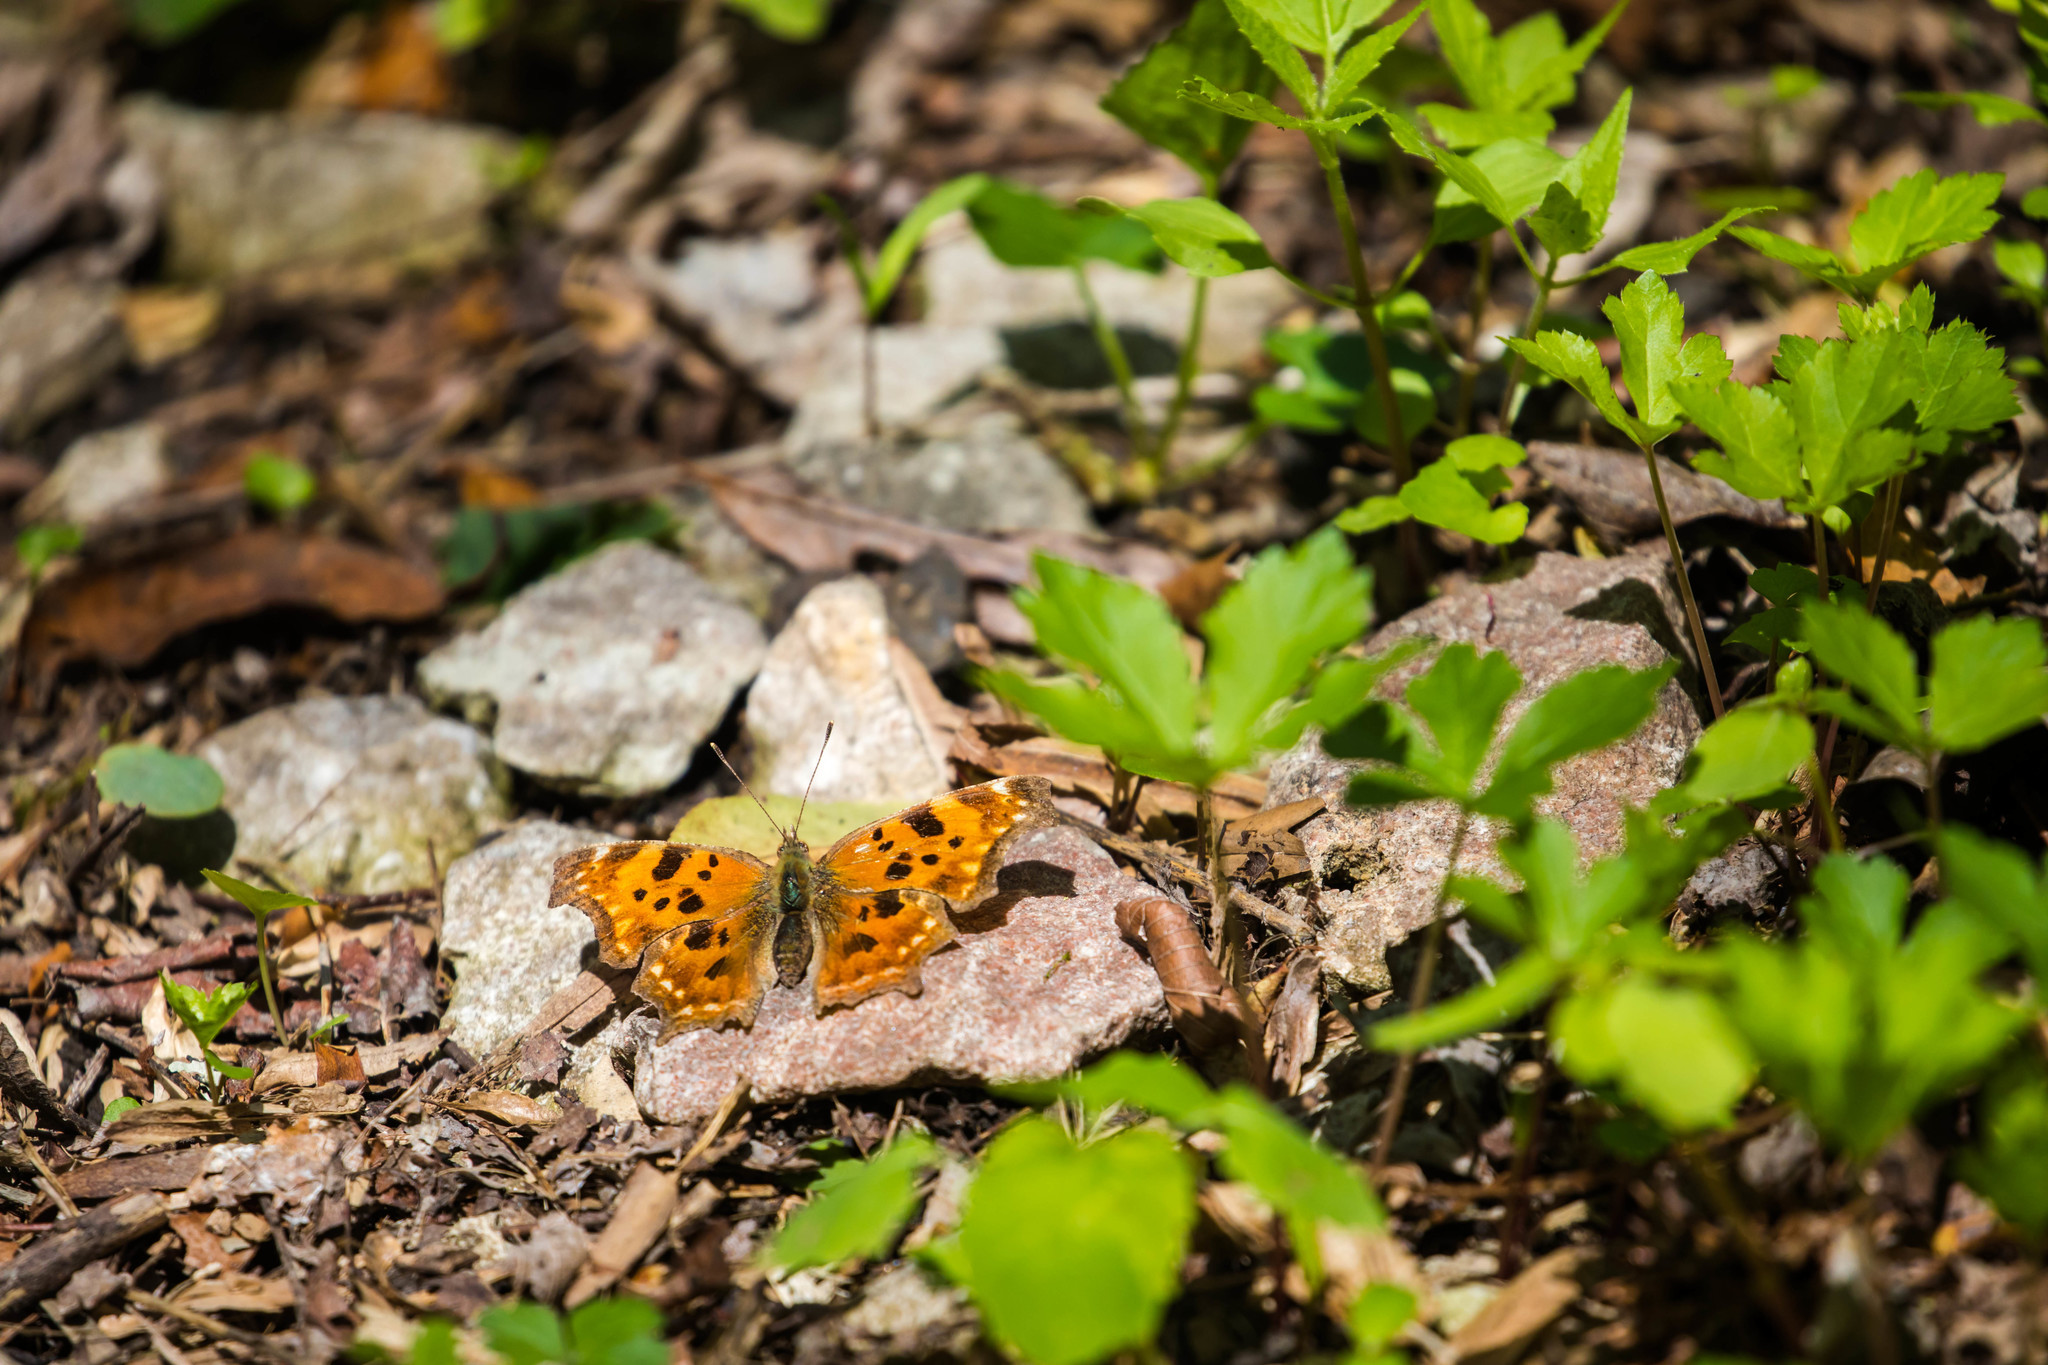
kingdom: Animalia
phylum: Arthropoda
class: Insecta
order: Lepidoptera
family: Nymphalidae
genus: Polygonia
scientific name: Polygonia comma
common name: Eastern comma
